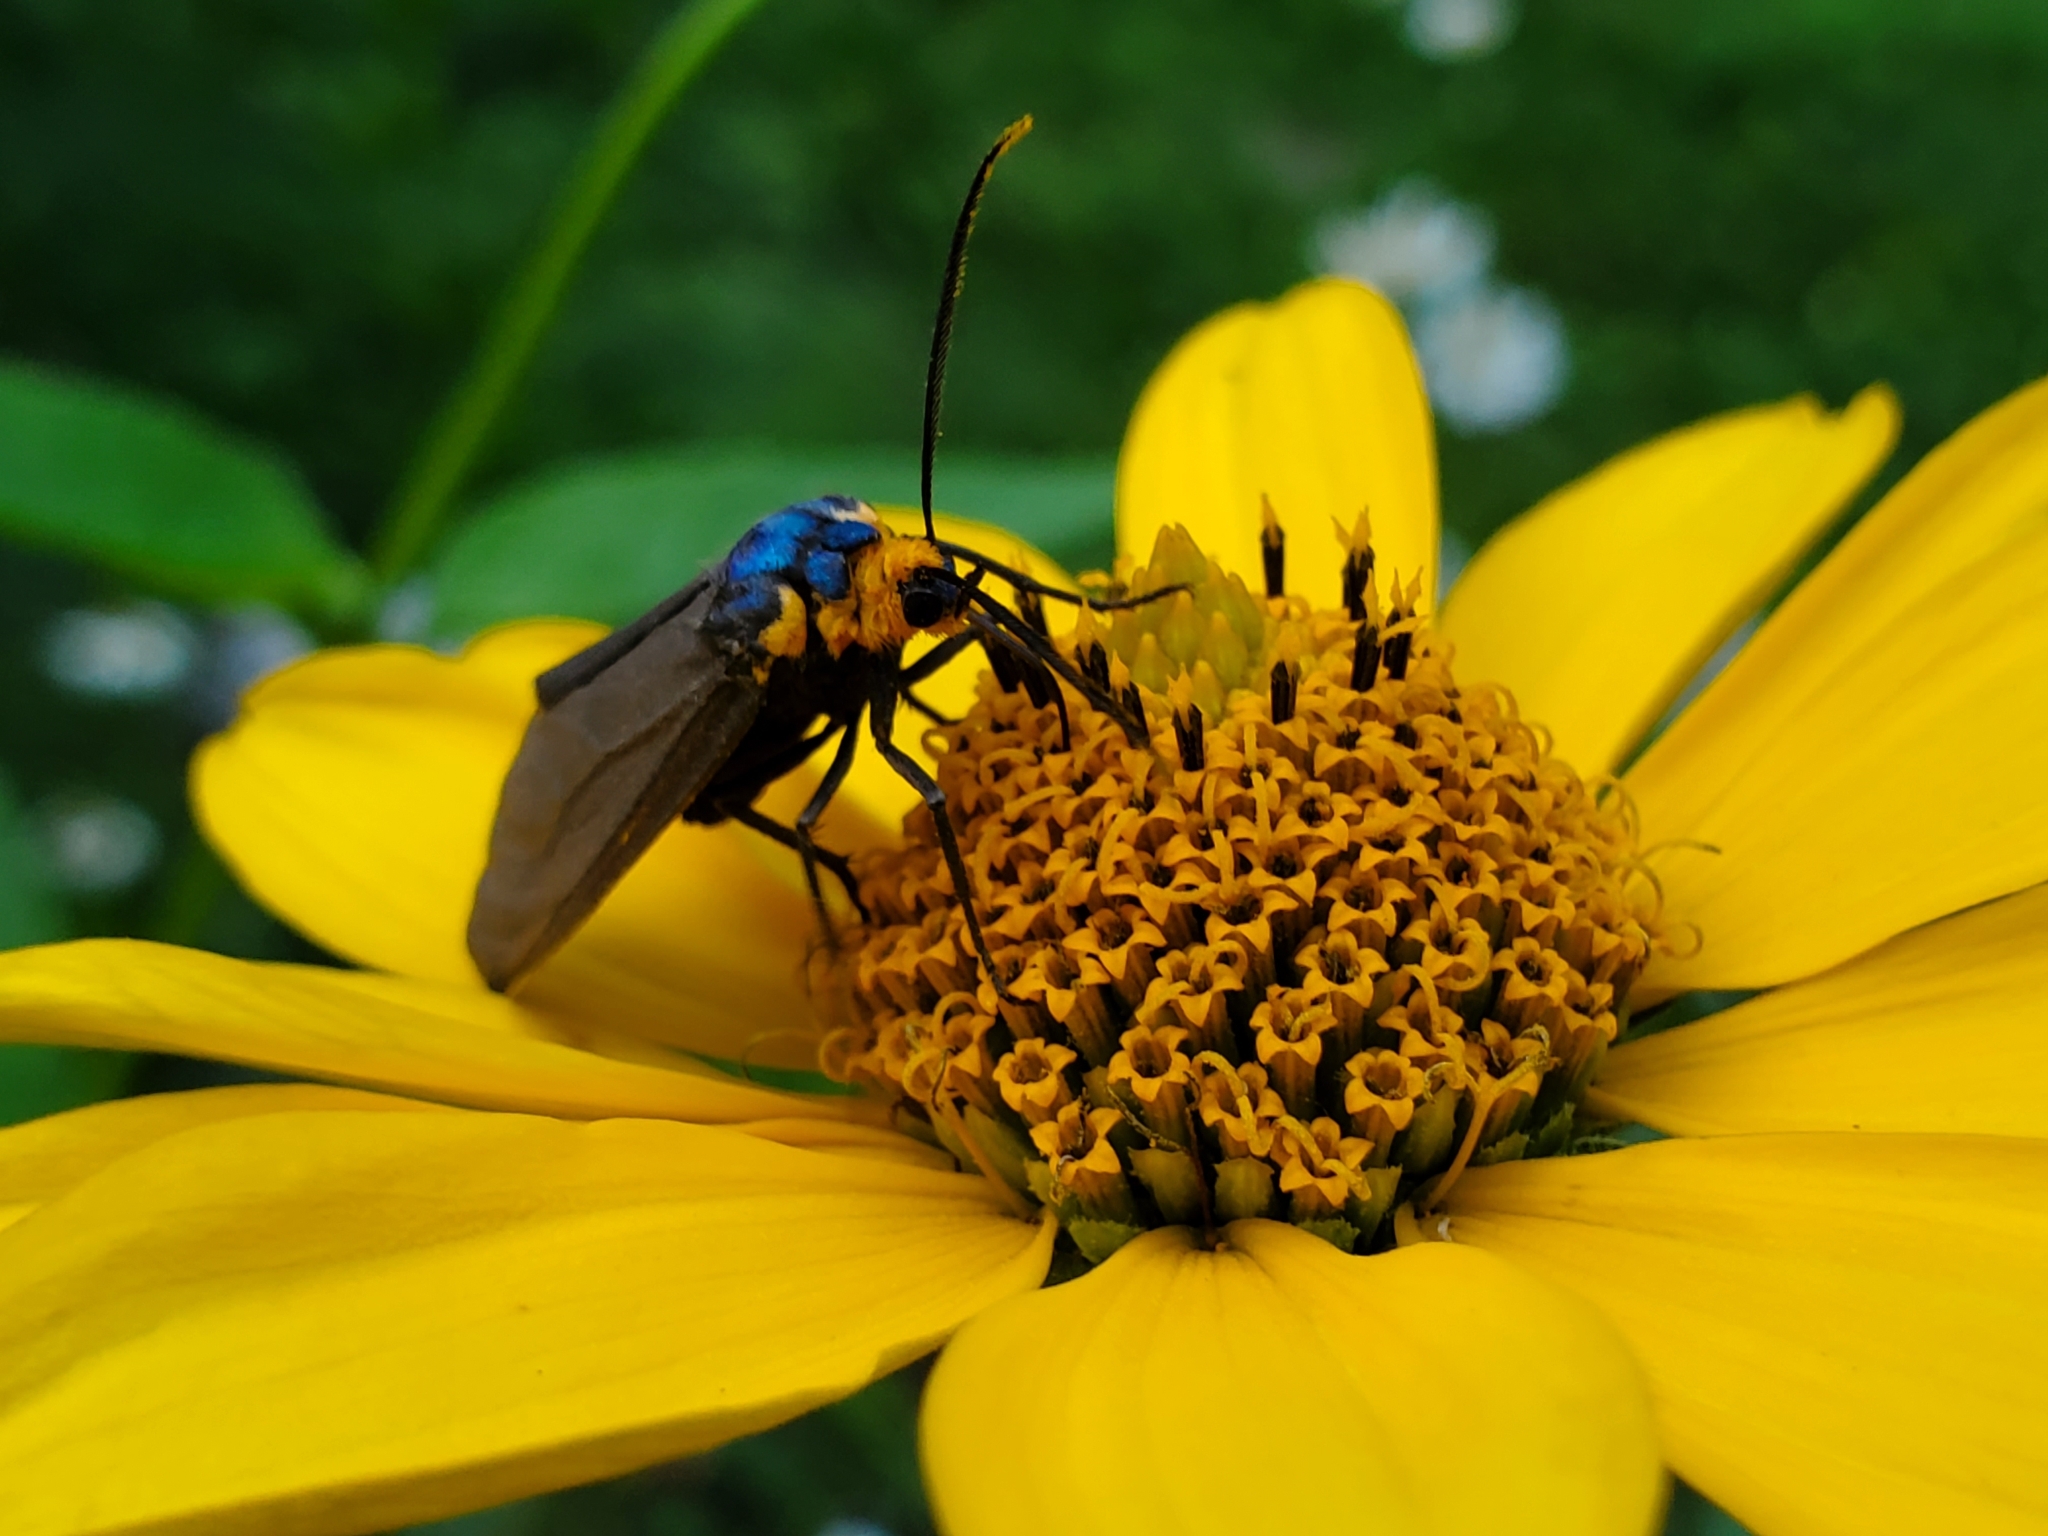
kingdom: Animalia
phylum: Arthropoda
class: Insecta
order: Lepidoptera
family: Erebidae
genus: Ctenucha
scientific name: Ctenucha virginica
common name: Virginia ctenucha moth
